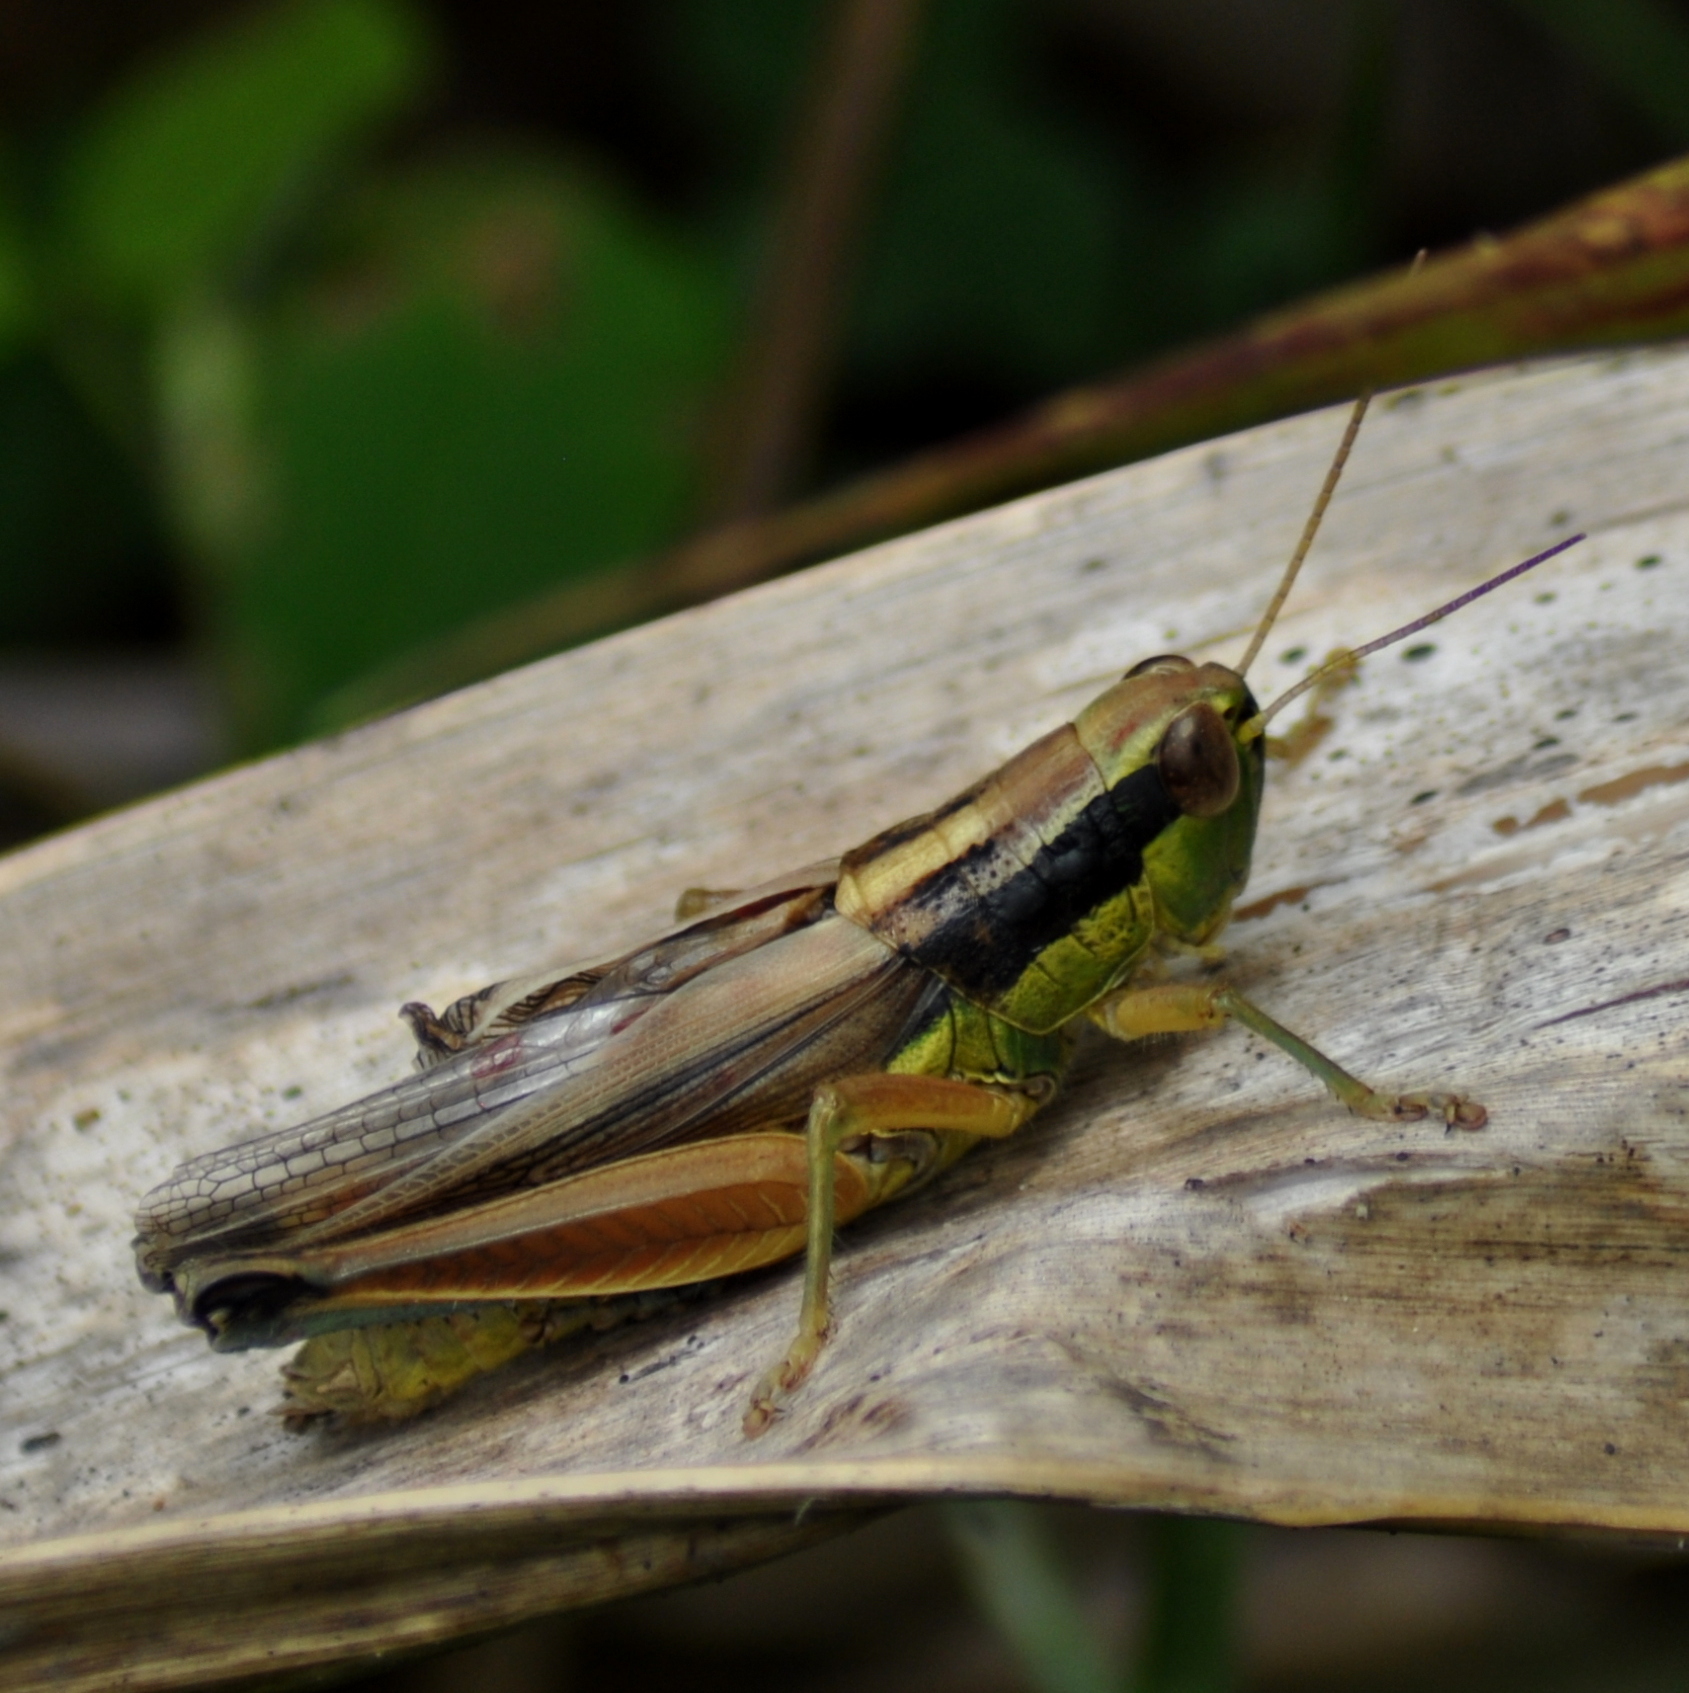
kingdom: Animalia
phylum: Arthropoda
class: Insecta
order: Orthoptera
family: Acrididae
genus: Scotussa
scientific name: Scotussa impudica
